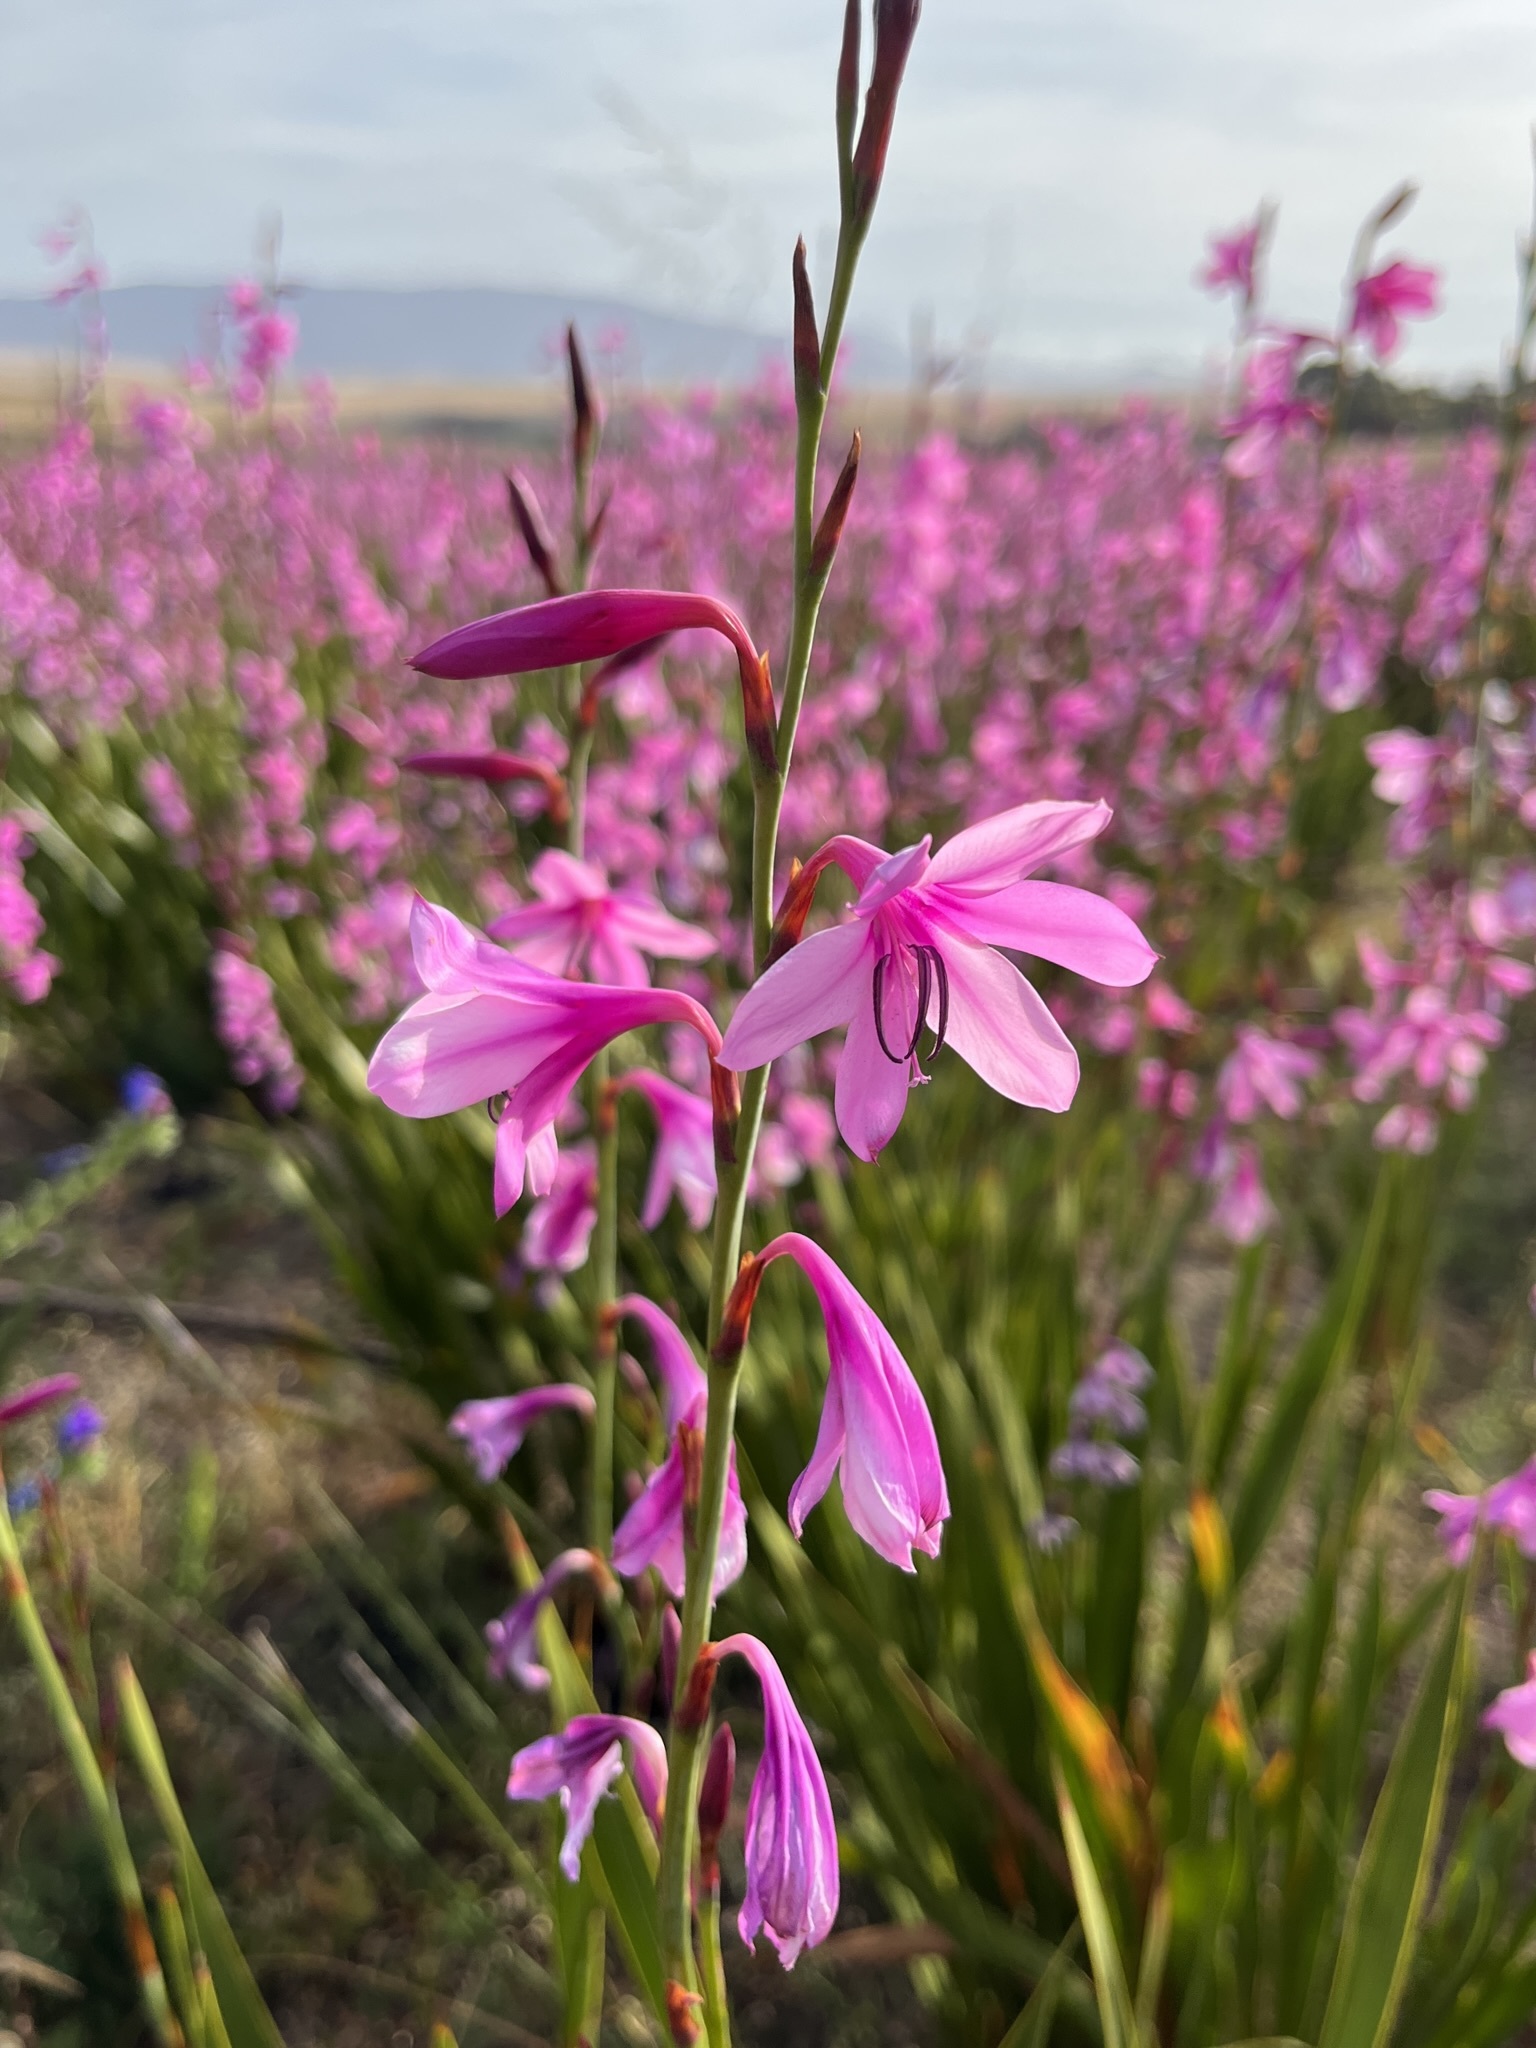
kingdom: Plantae
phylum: Tracheophyta
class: Liliopsida
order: Asparagales
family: Iridaceae
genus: Watsonia
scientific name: Watsonia borbonica
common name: Bugle-lily
